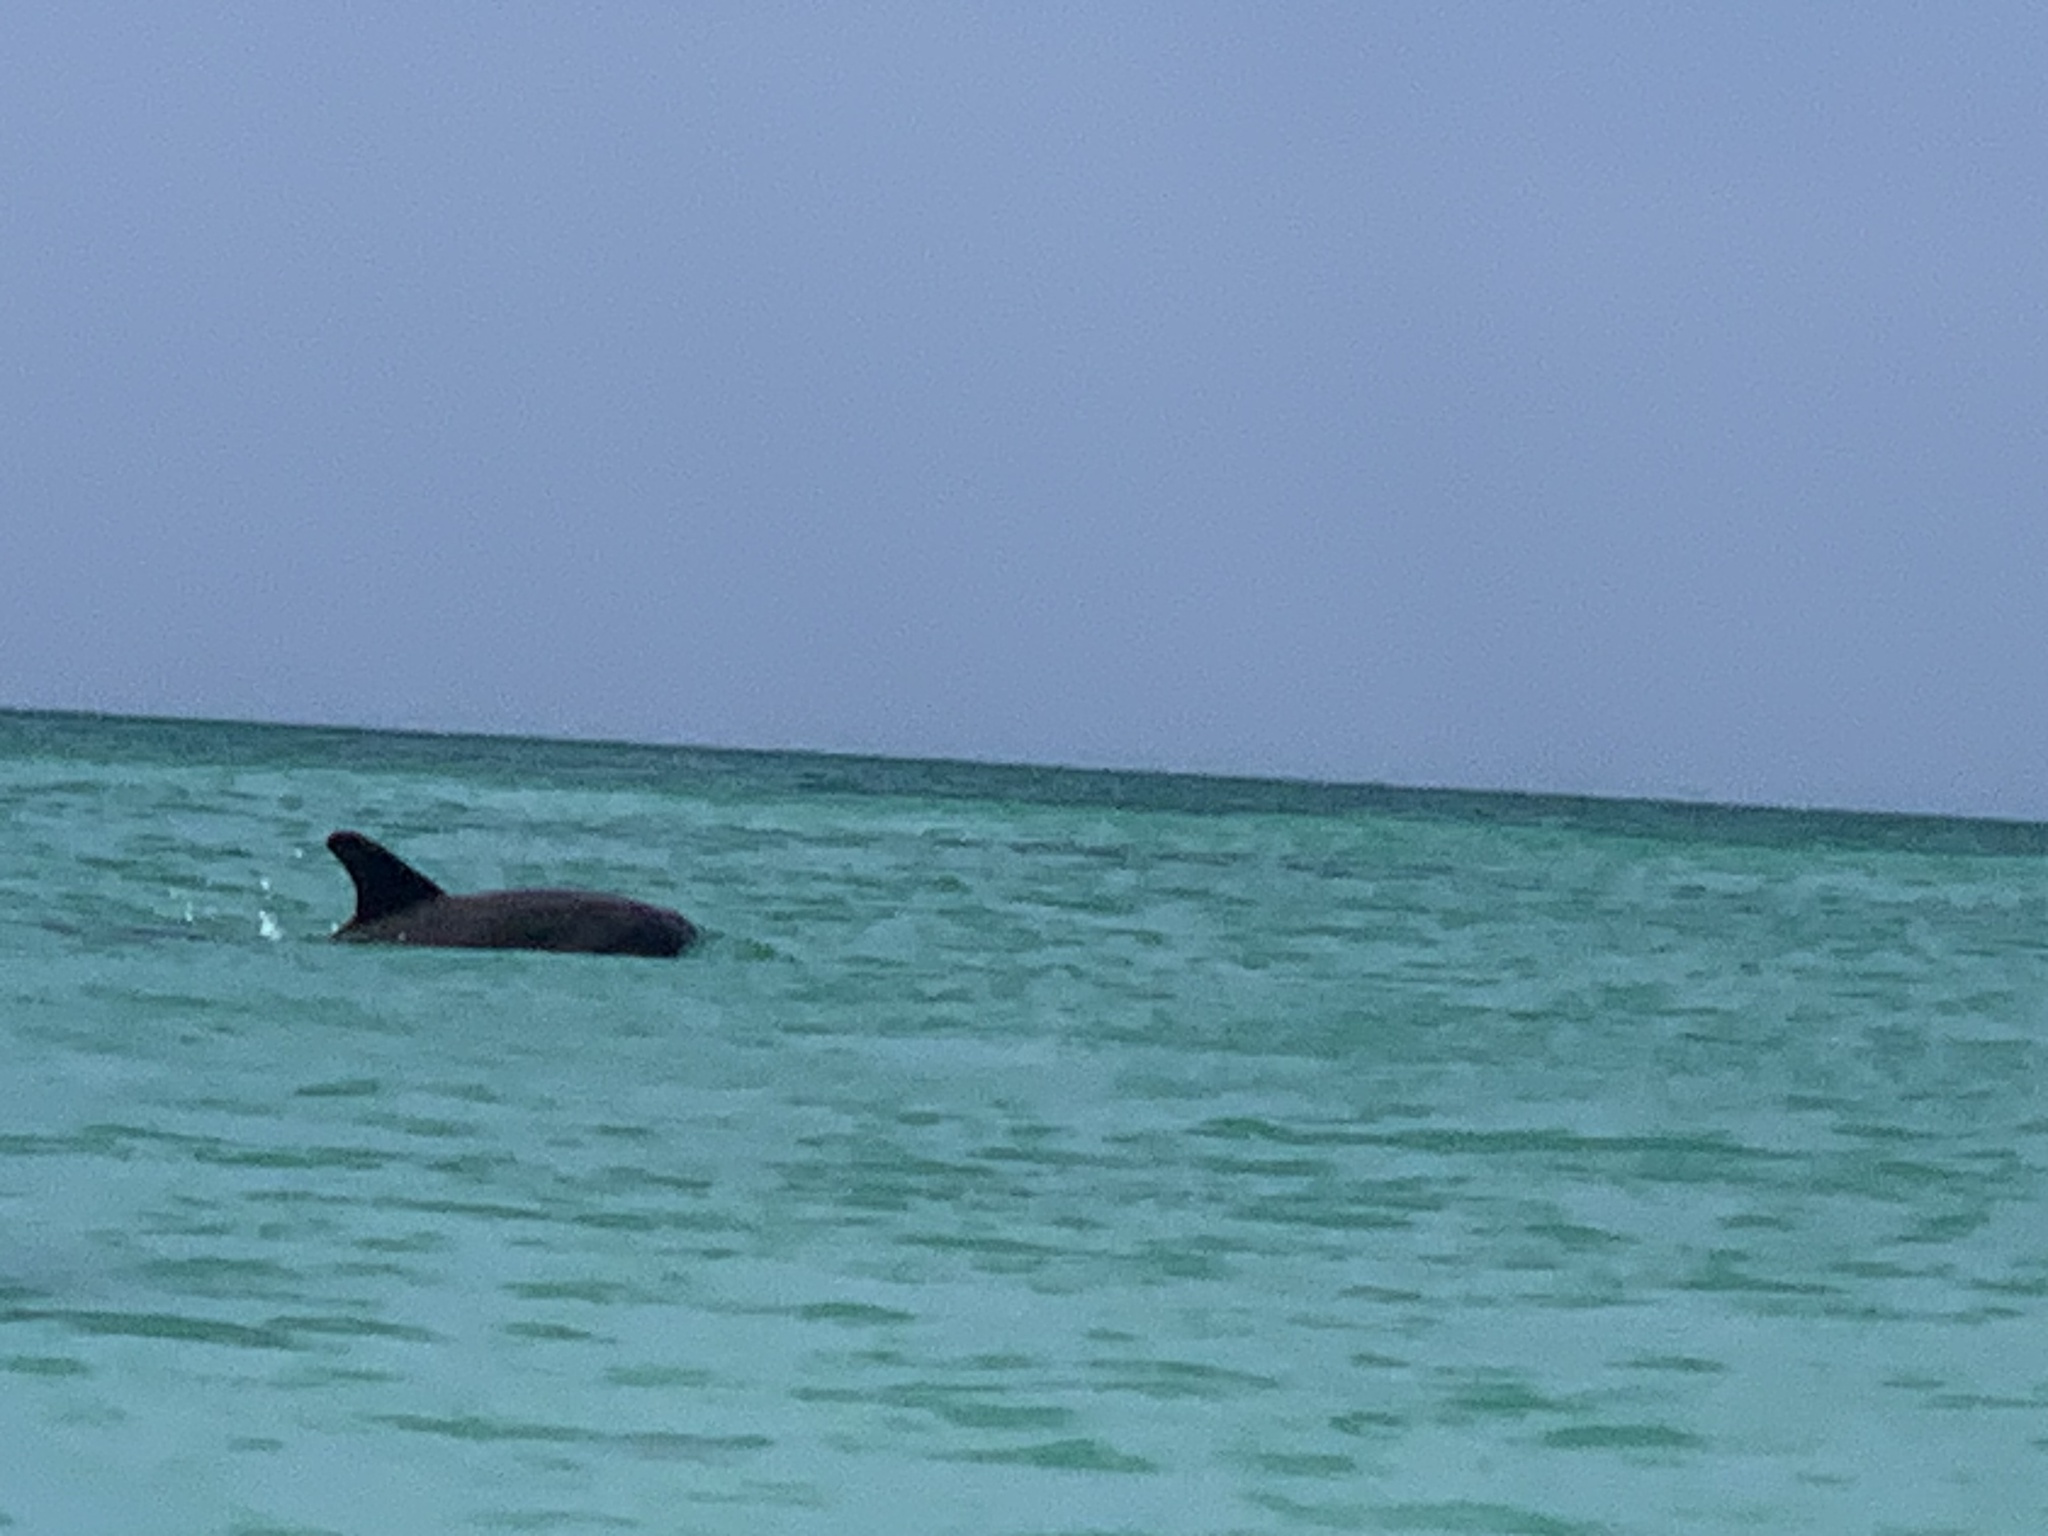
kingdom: Animalia
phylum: Chordata
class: Mammalia
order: Cetacea
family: Delphinidae
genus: Tursiops
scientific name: Tursiops truncatus
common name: Bottlenose dolphin
